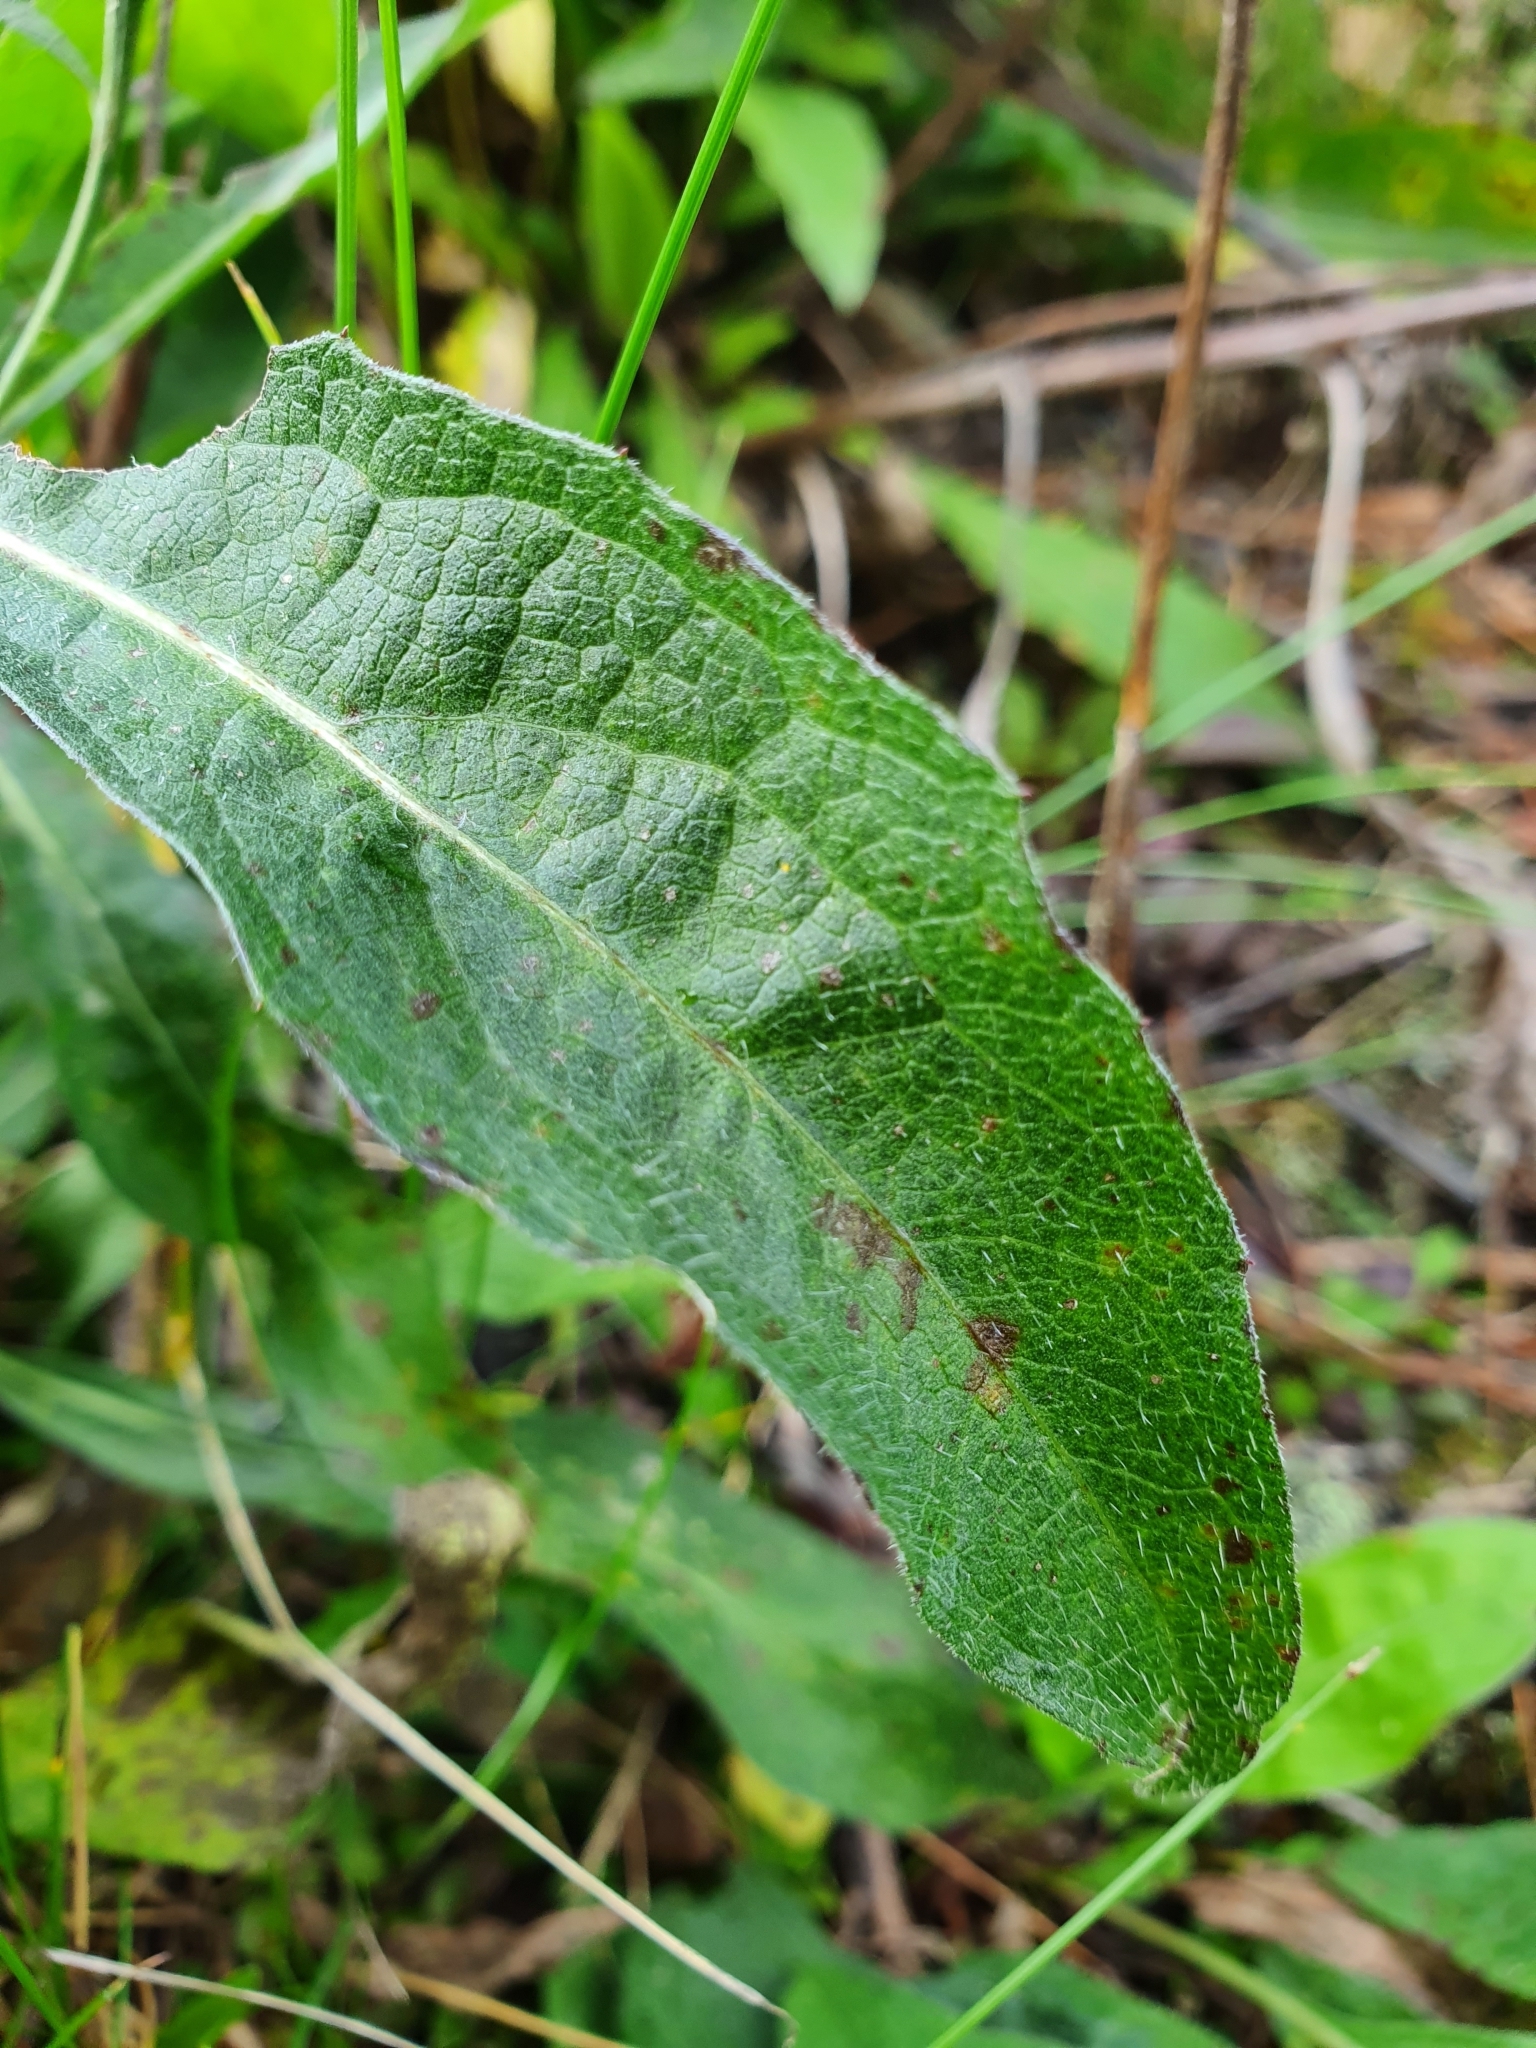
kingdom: Plantae
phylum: Tracheophyta
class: Magnoliopsida
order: Asterales
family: Asteraceae
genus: Centaurea
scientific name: Centaurea jacea
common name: Brown knapweed
